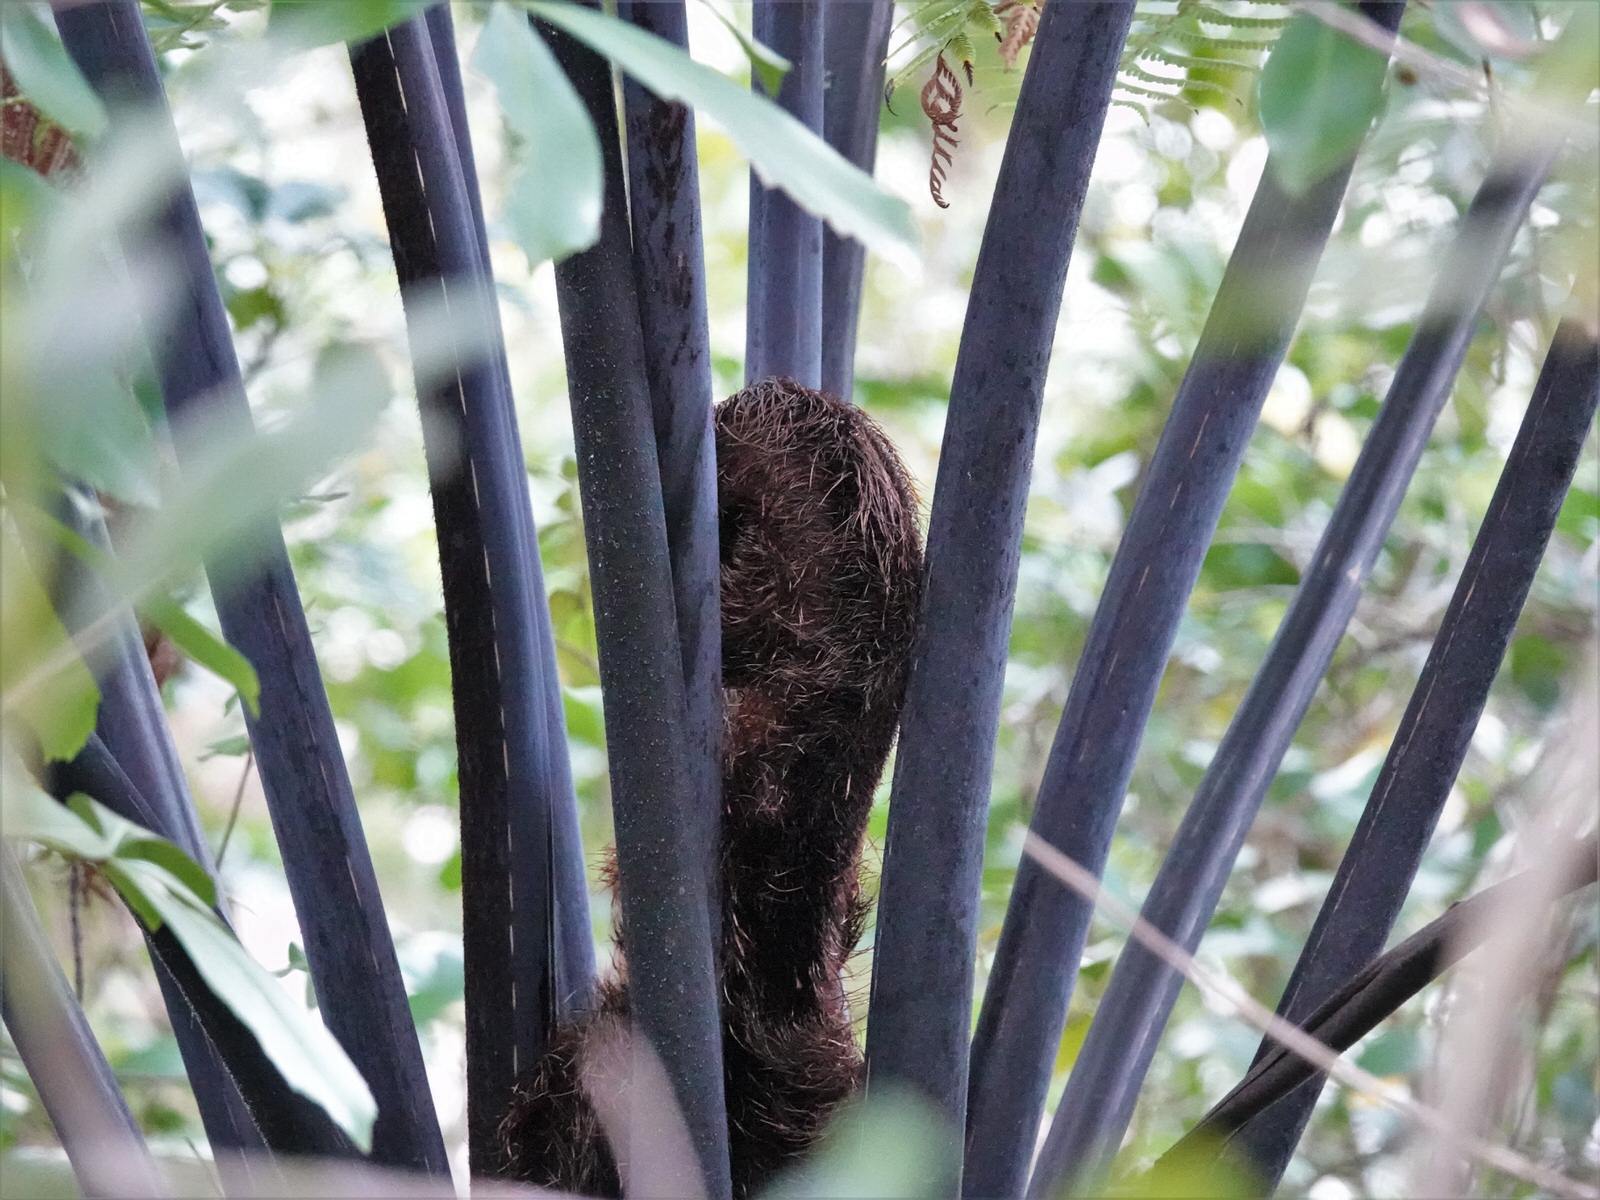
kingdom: Plantae
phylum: Tracheophyta
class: Polypodiopsida
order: Cyatheales
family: Cyatheaceae
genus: Sphaeropteris
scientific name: Sphaeropteris medullaris
